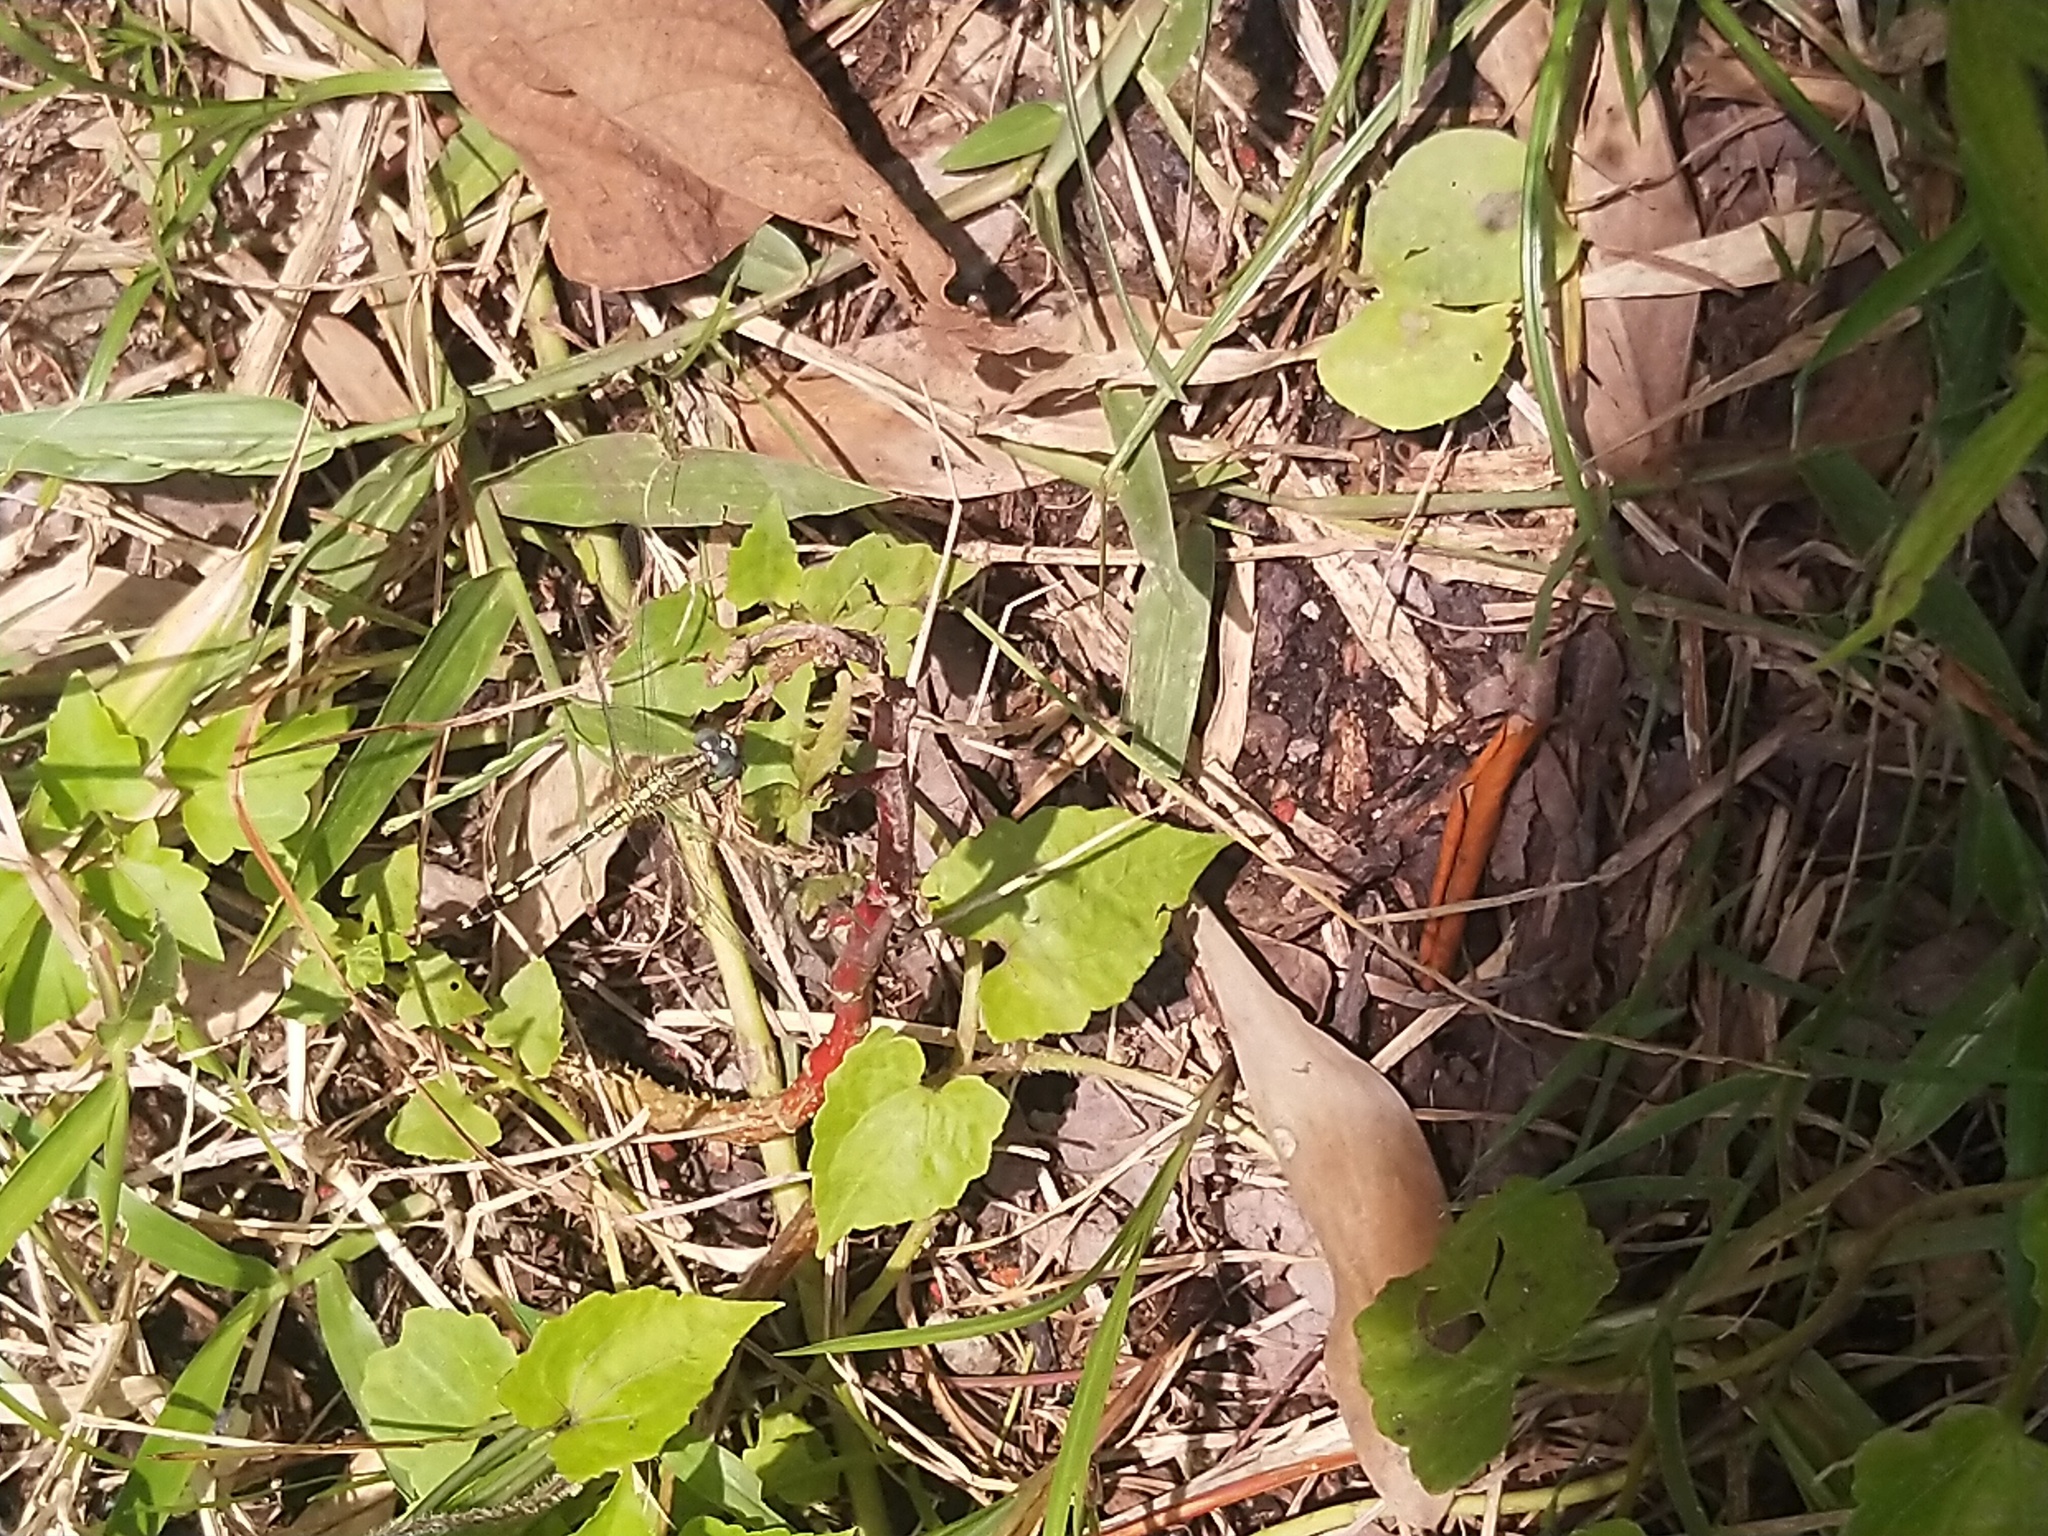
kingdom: Animalia
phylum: Arthropoda
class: Insecta
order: Odonata
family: Libellulidae
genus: Diplacodes
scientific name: Diplacodes trivialis
